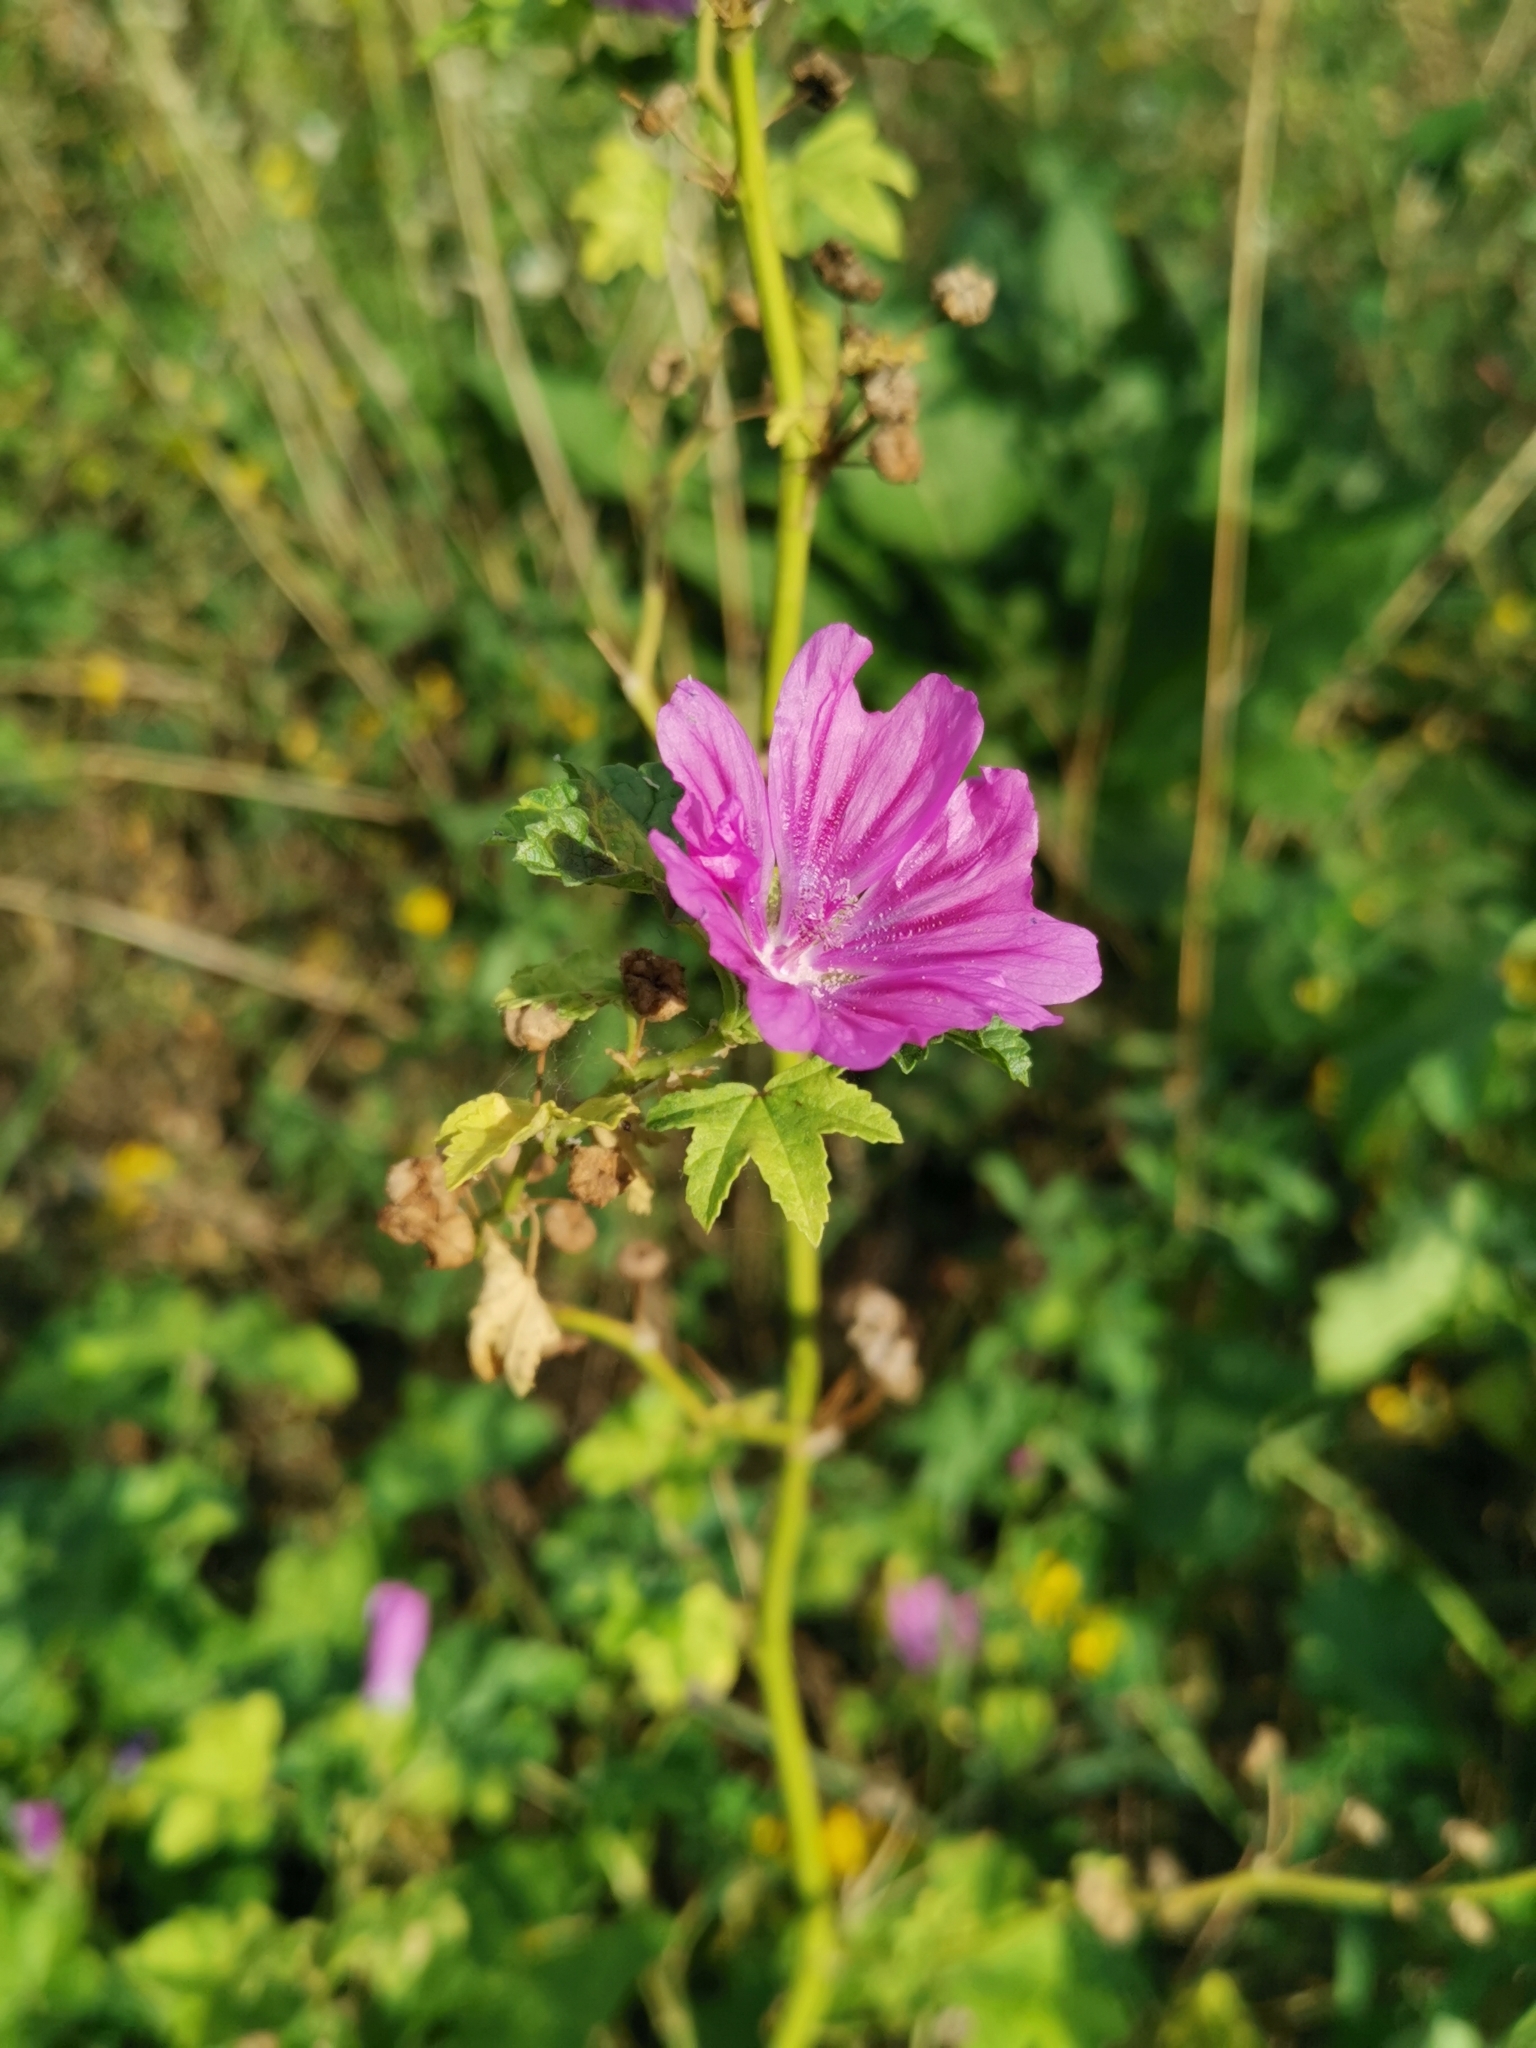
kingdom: Plantae
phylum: Tracheophyta
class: Magnoliopsida
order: Malvales
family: Malvaceae
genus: Malva
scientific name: Malva sylvestris
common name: Common mallow
